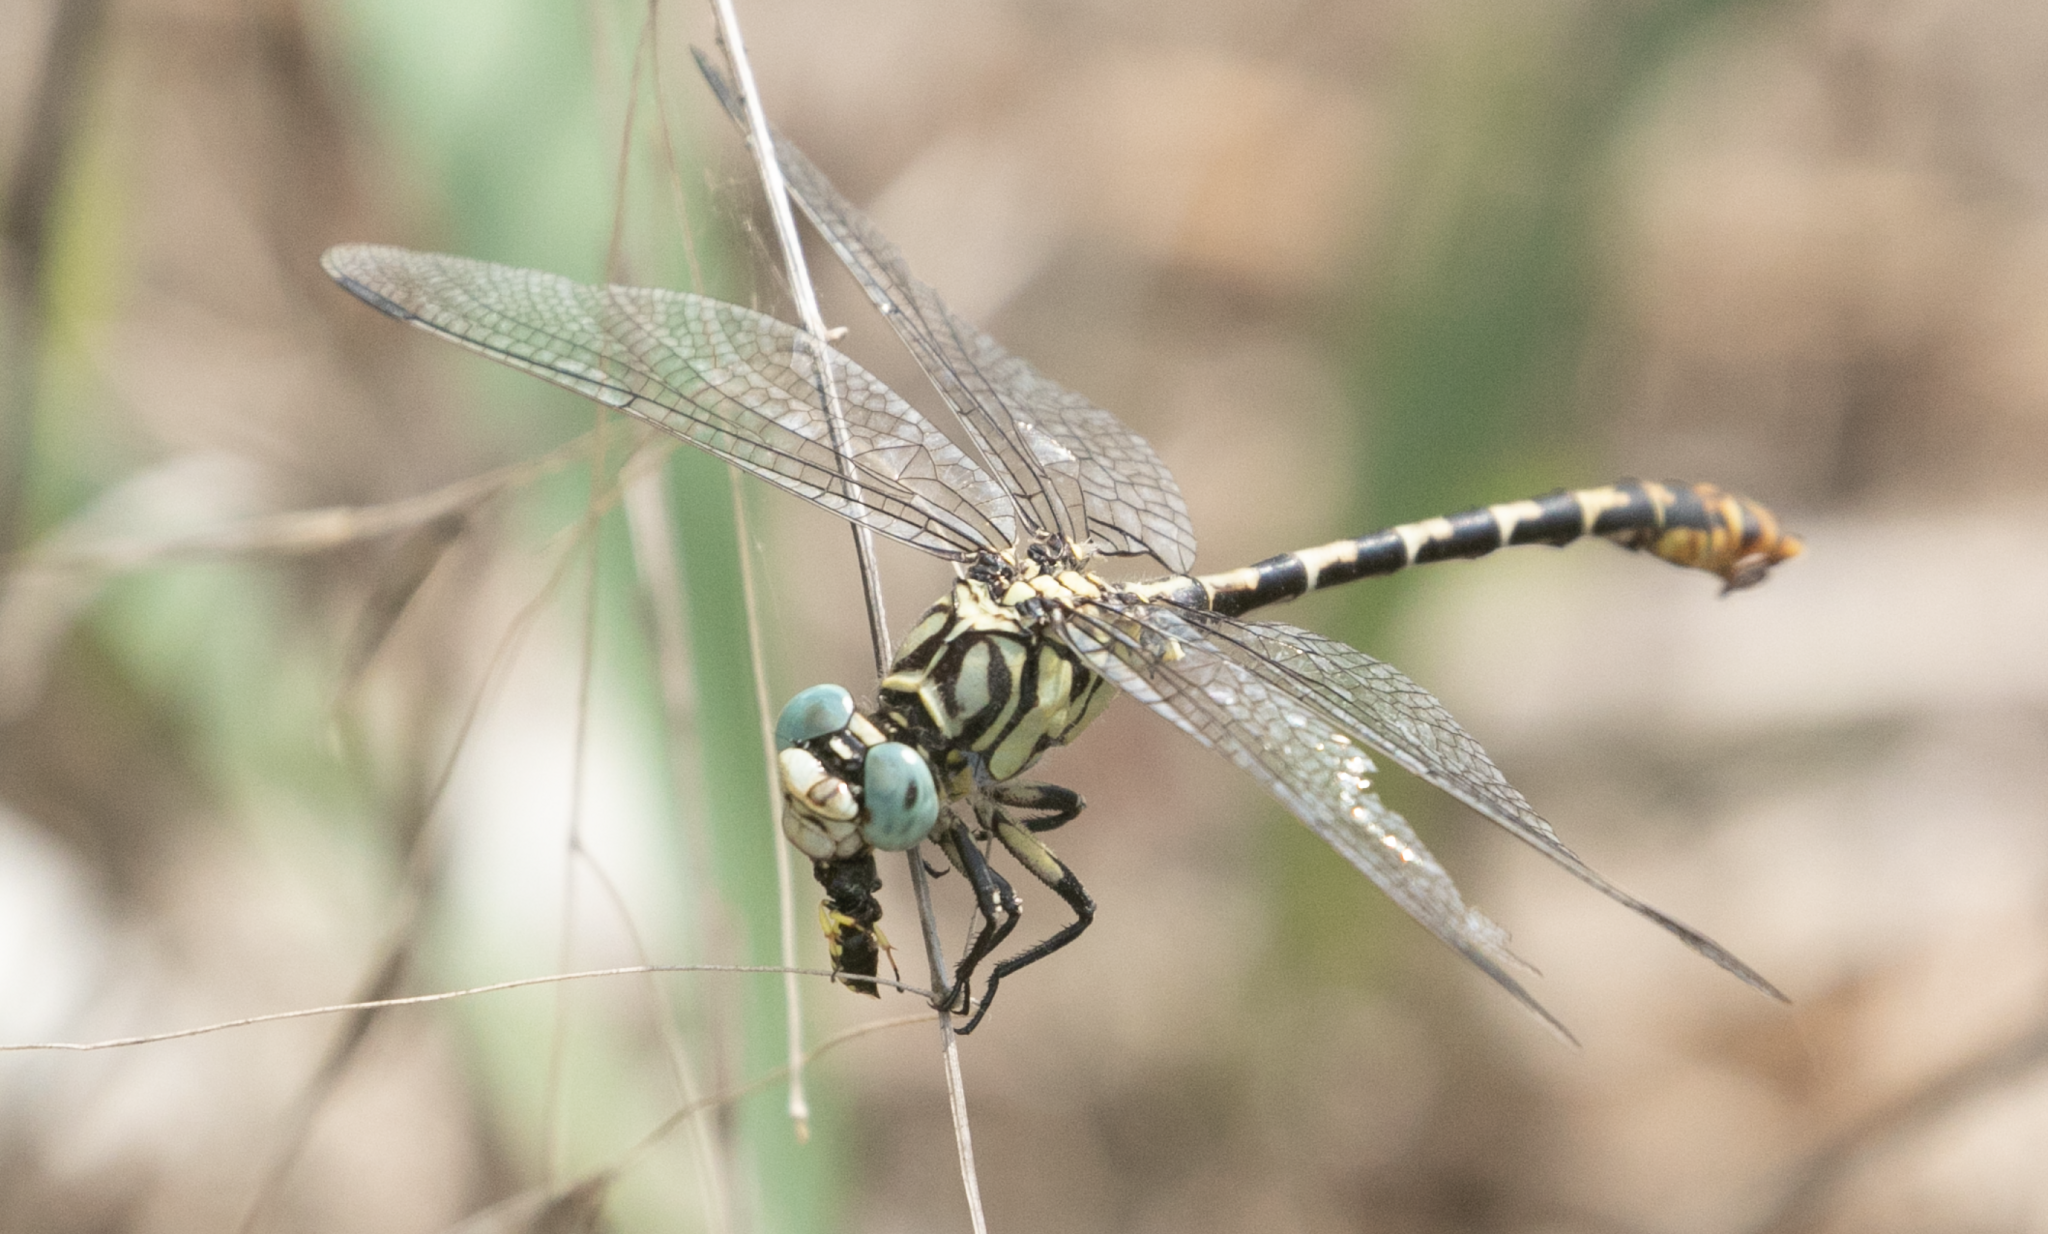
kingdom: Animalia
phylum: Arthropoda
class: Insecta
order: Odonata
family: Gomphidae
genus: Onychogomphus
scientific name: Onychogomphus forcipatus
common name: Small pincertail
